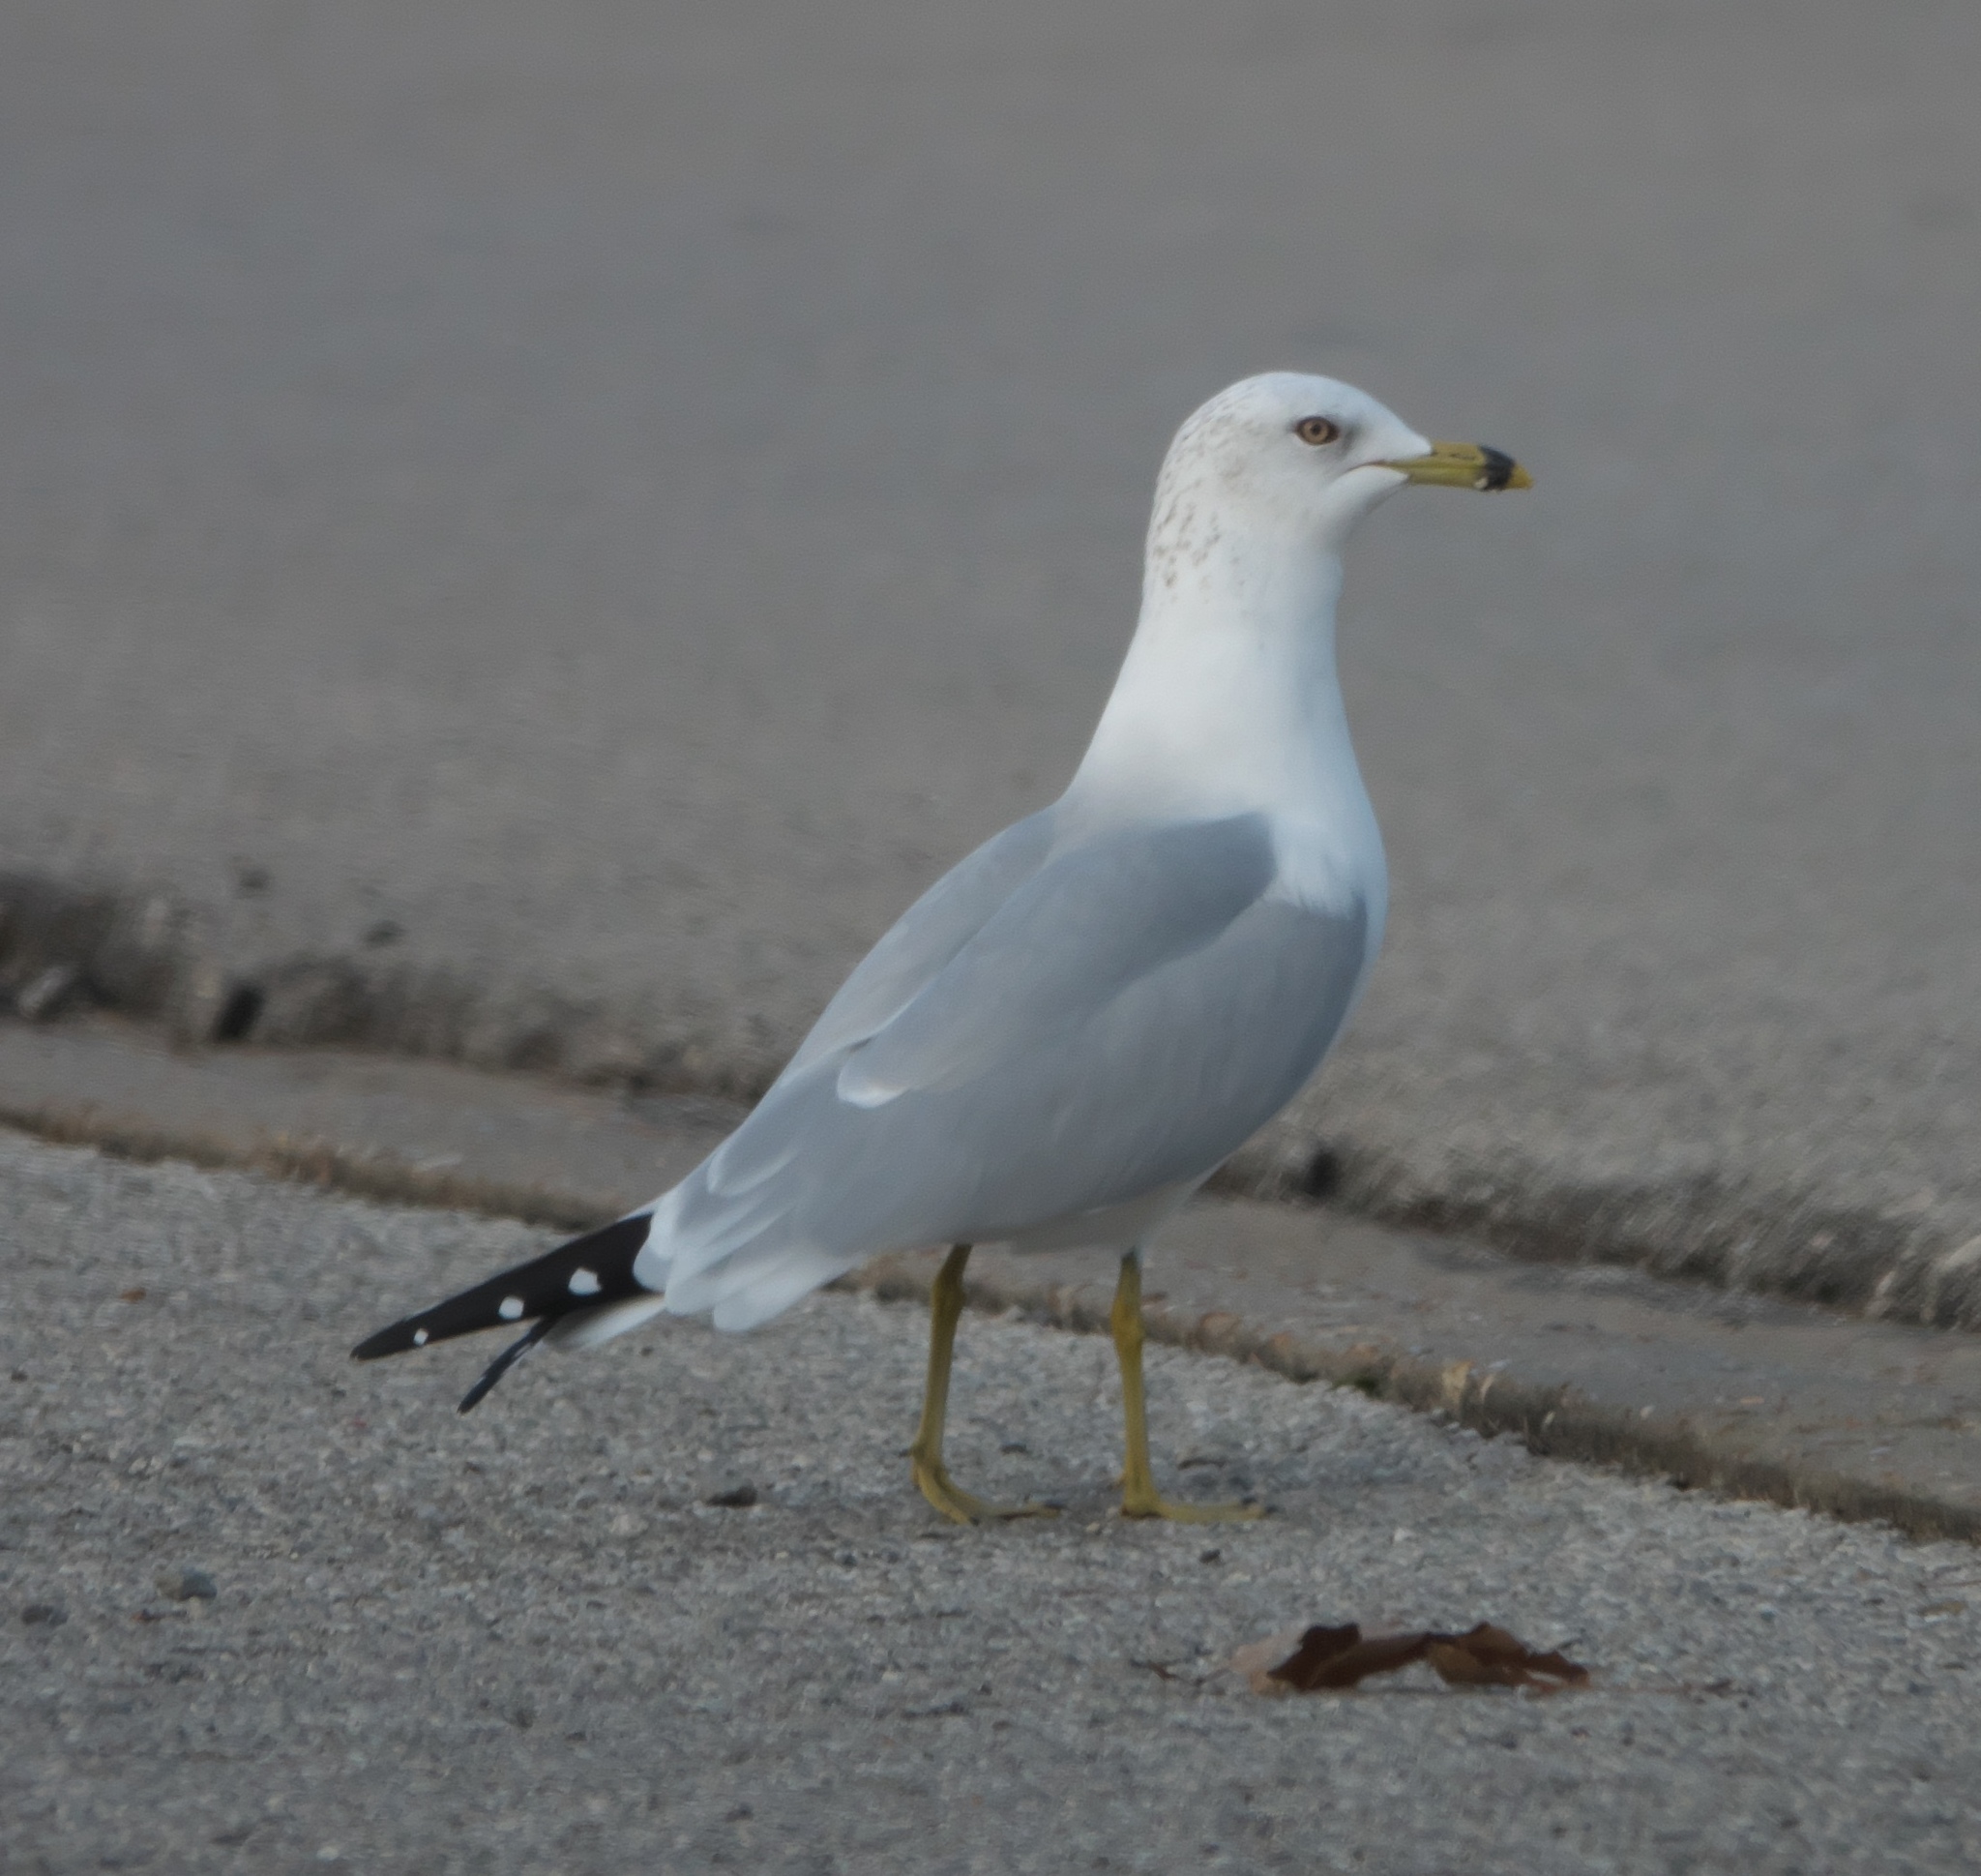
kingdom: Animalia
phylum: Chordata
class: Aves
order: Charadriiformes
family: Laridae
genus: Larus
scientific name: Larus delawarensis
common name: Ring-billed gull
